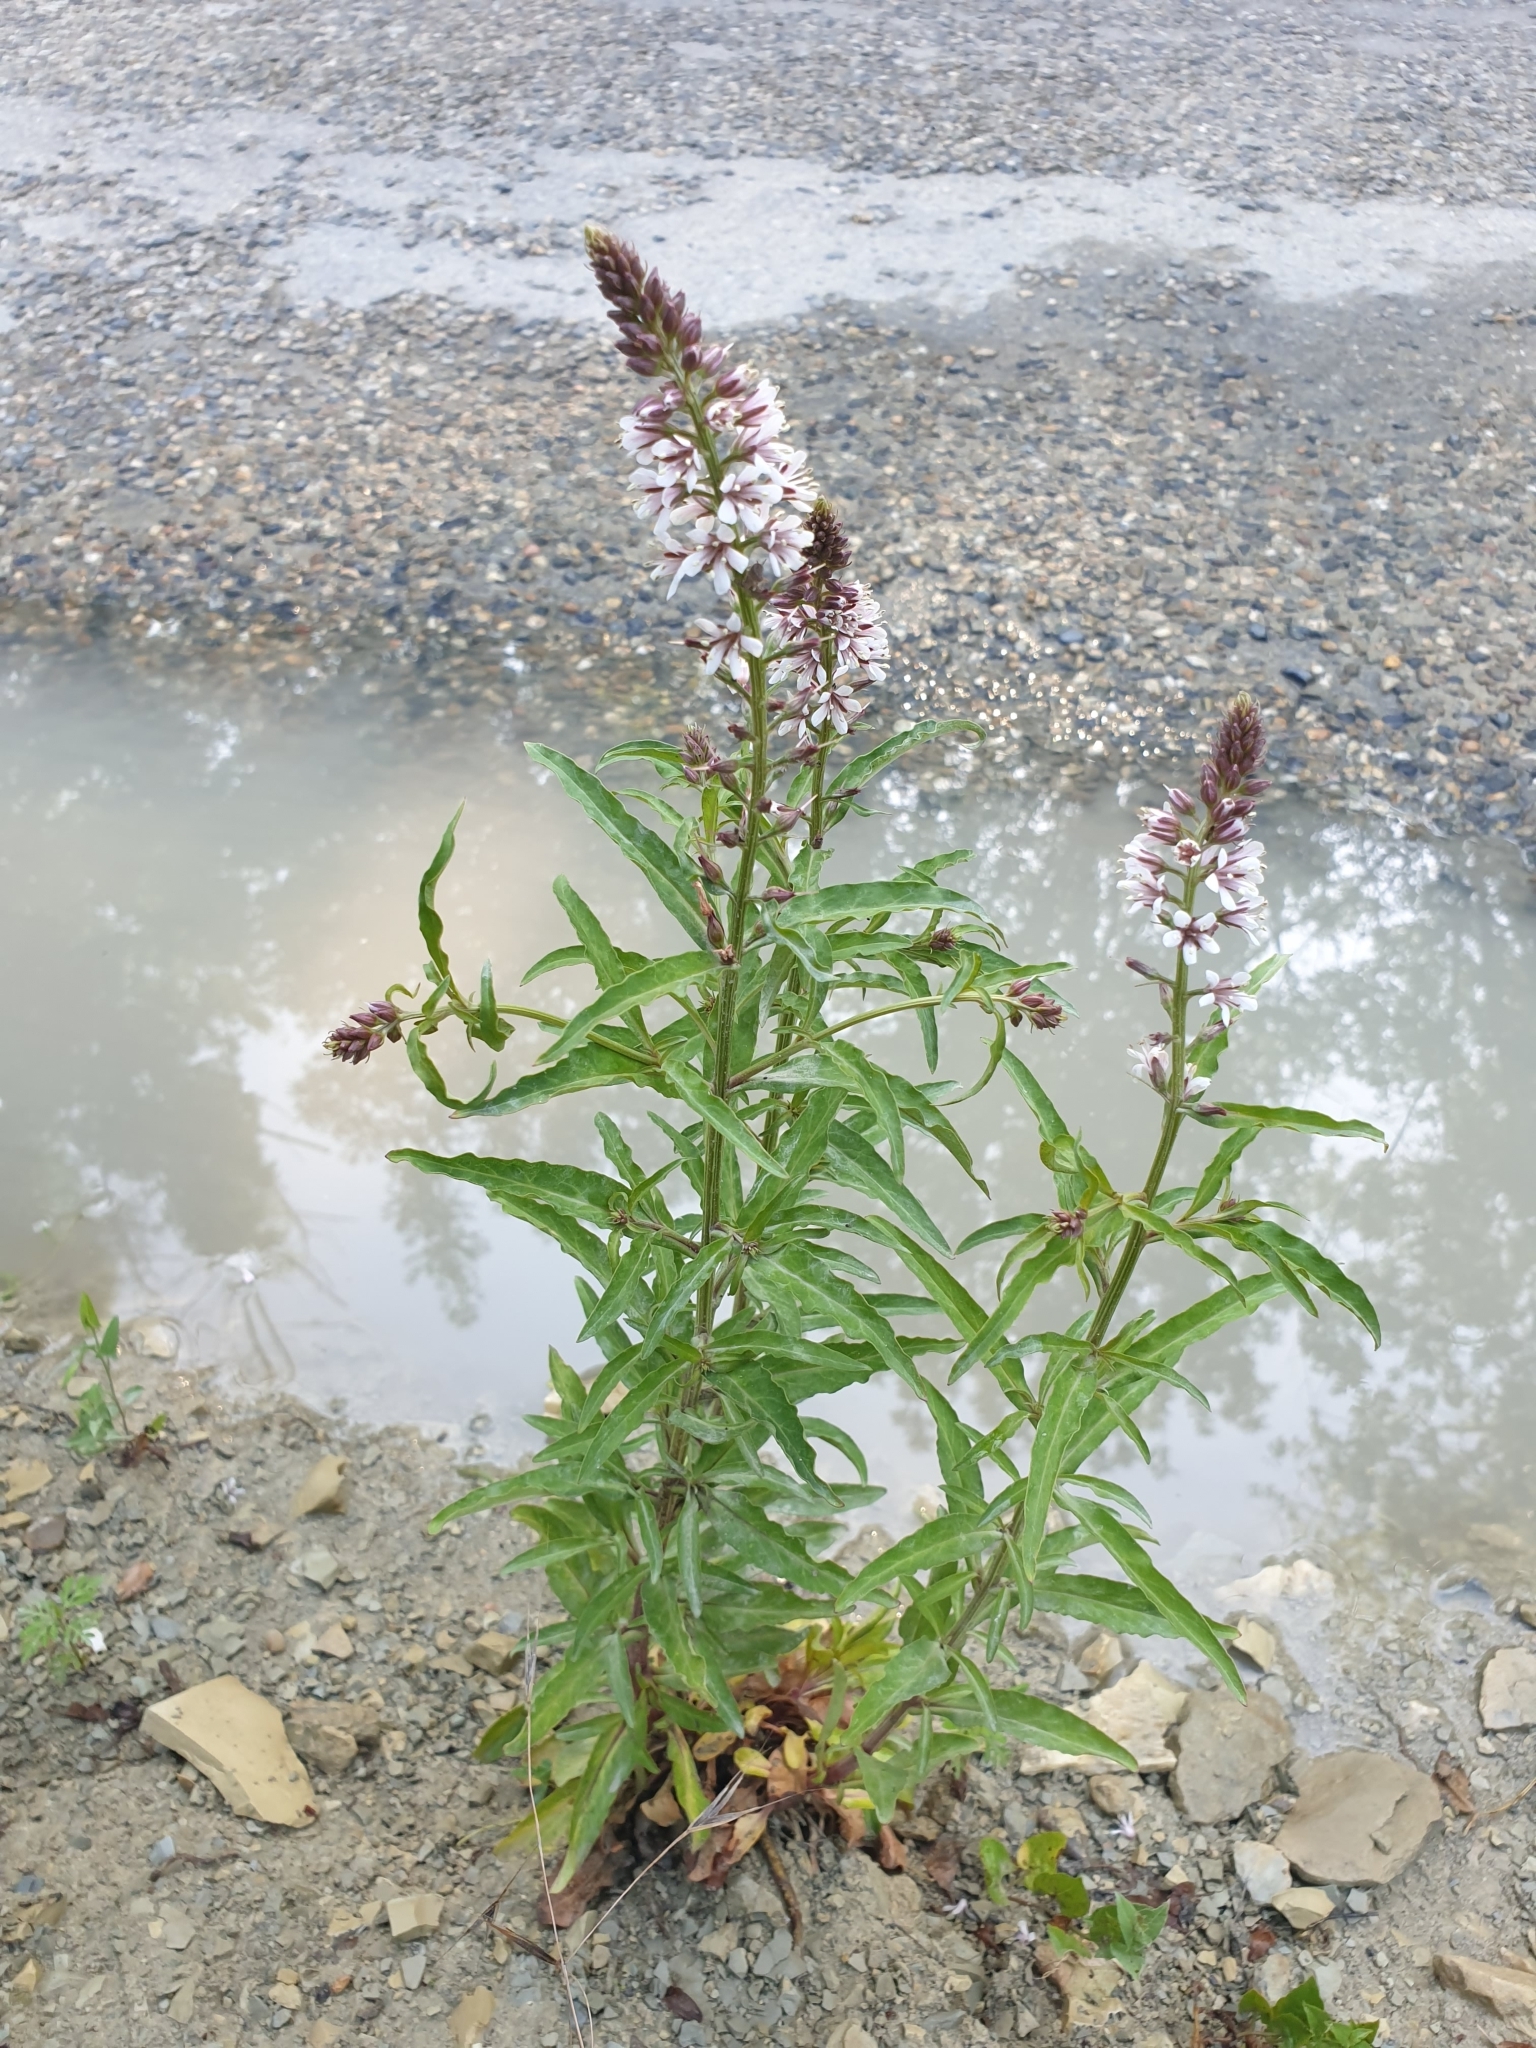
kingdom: Plantae
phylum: Tracheophyta
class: Magnoliopsida
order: Ericales
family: Primulaceae
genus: Lysimachia
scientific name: Lysimachia dubia
